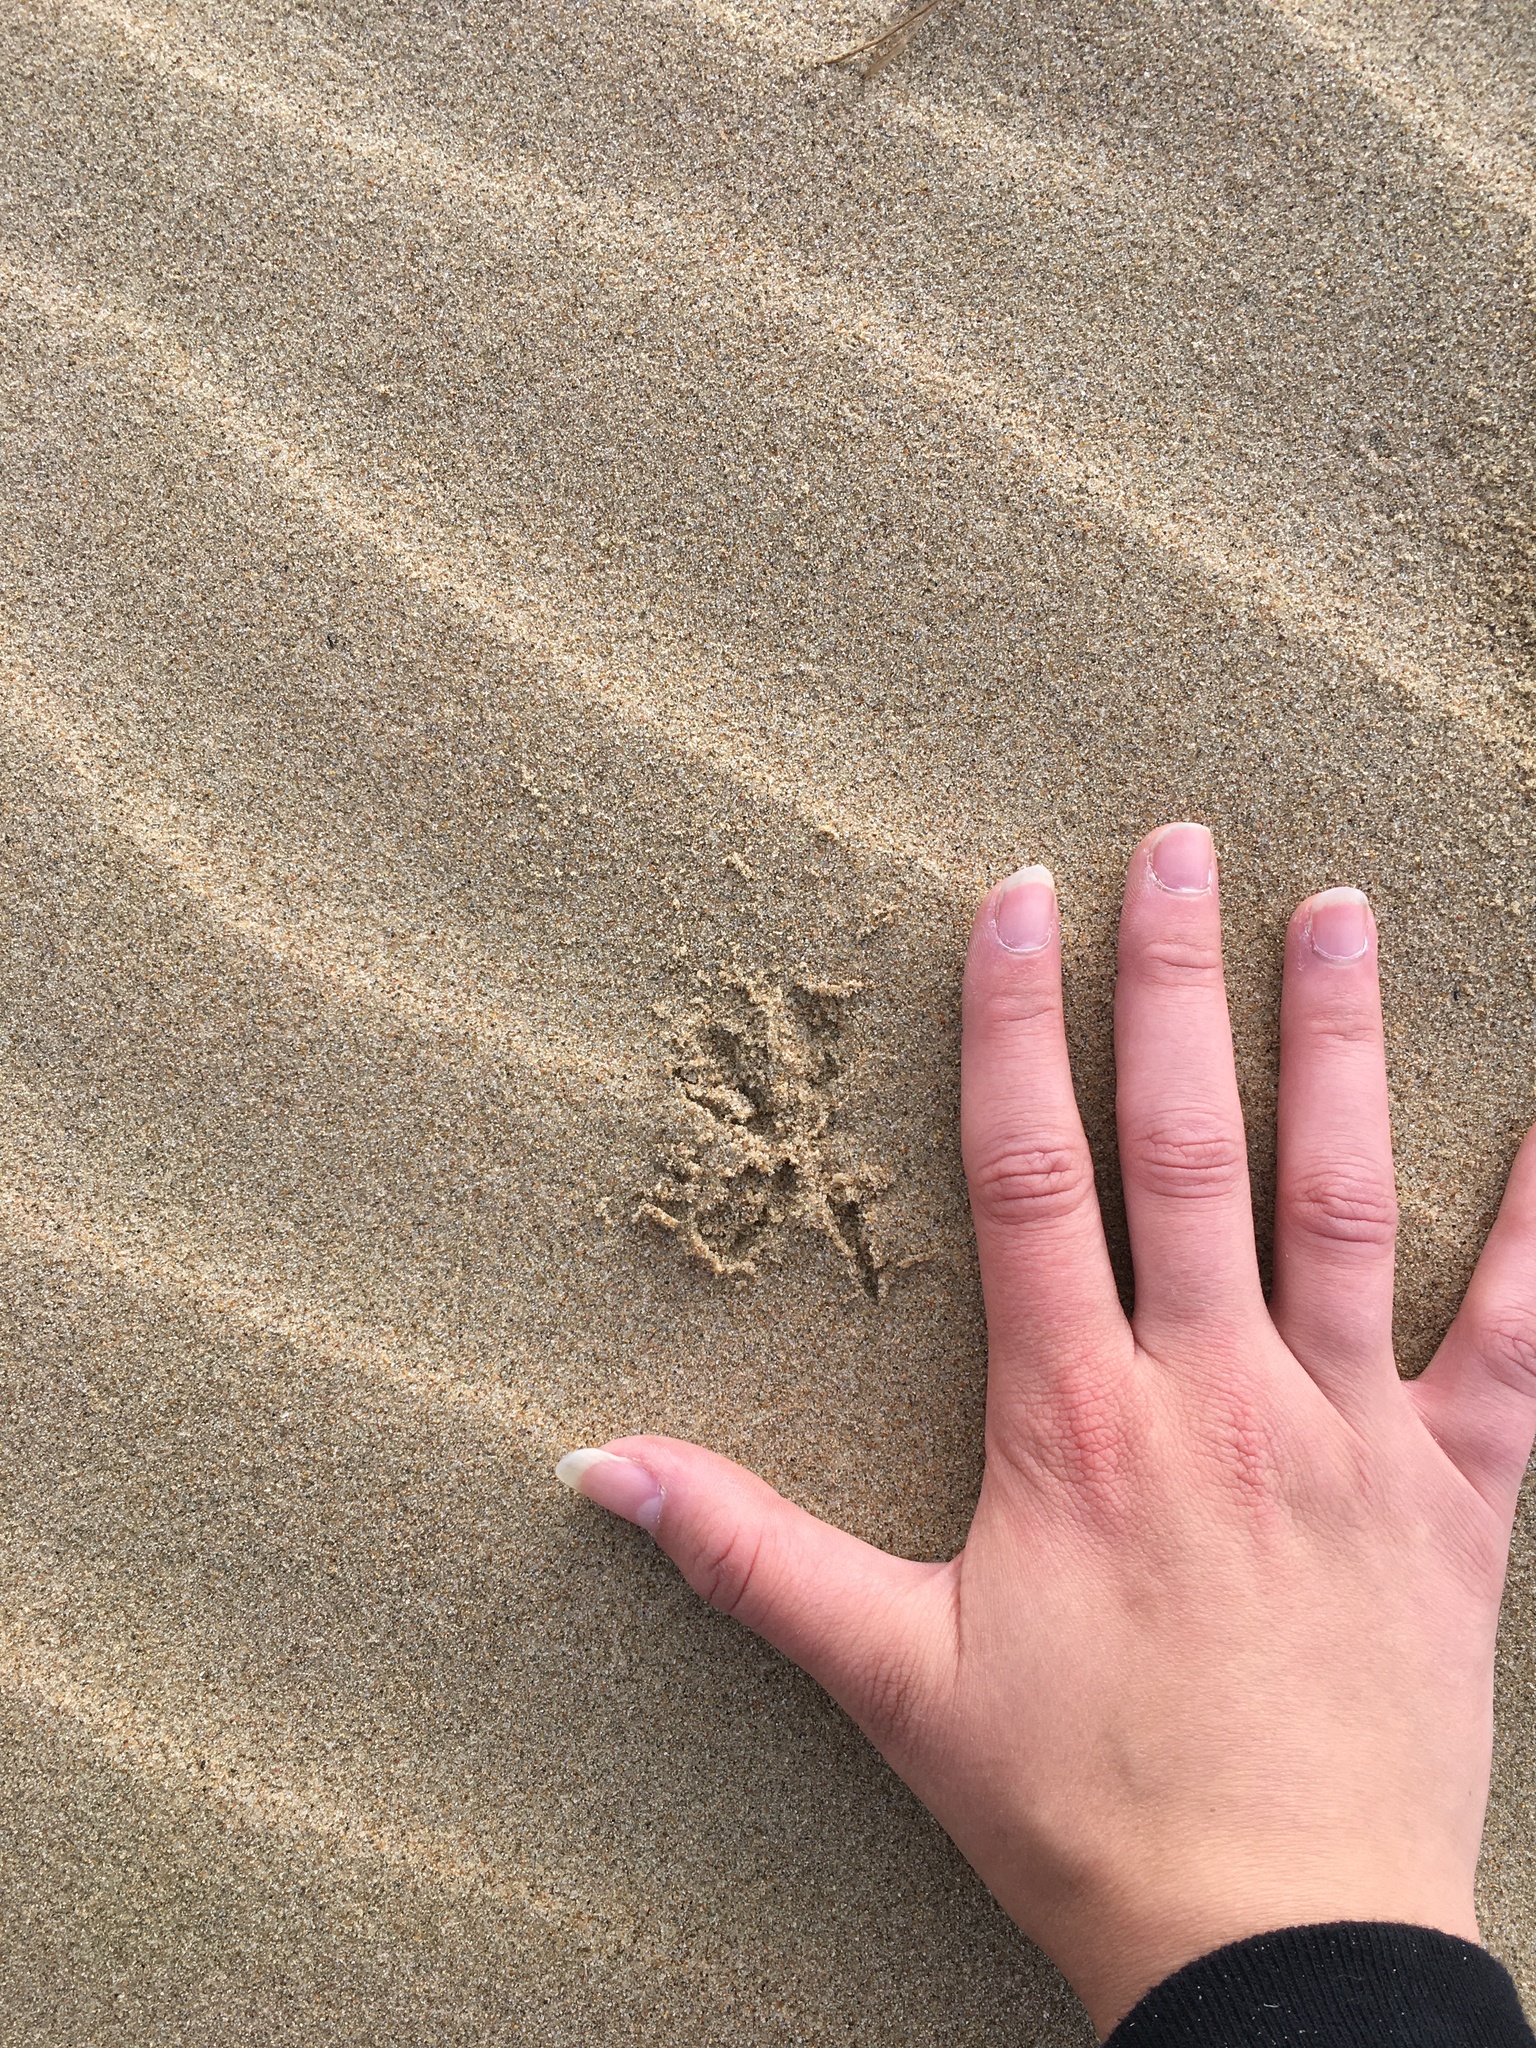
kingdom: Animalia
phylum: Chordata
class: Aves
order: Strigiformes
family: Strigidae
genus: Athene
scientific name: Athene cunicularia
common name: Burrowing owl
